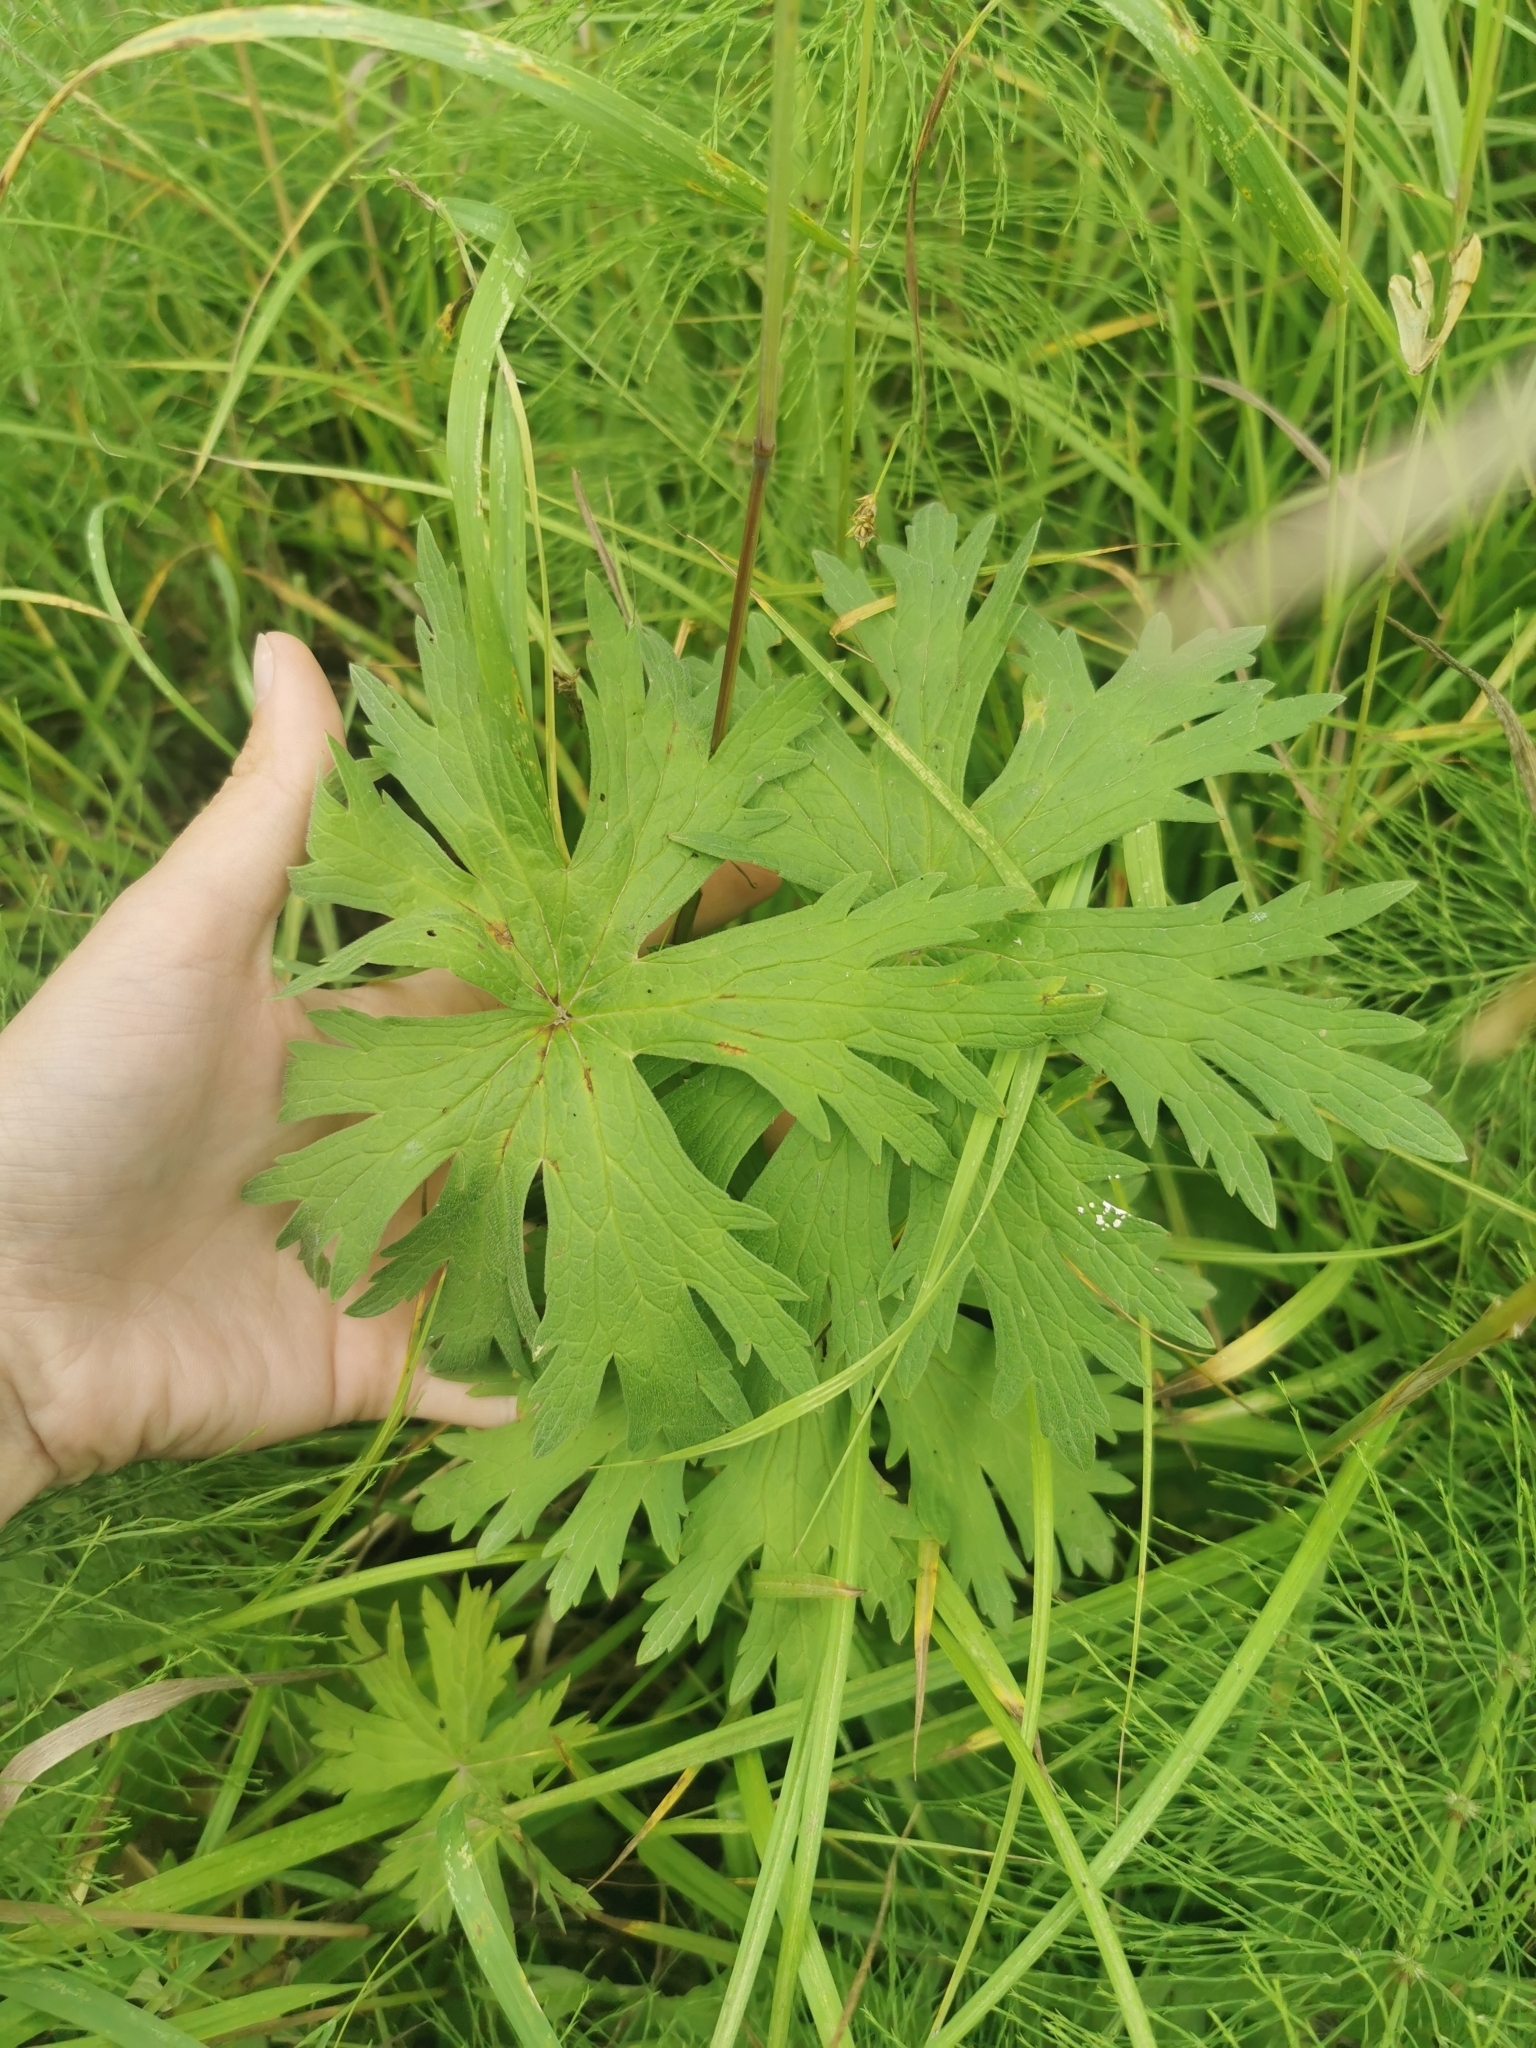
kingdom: Plantae
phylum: Tracheophyta
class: Magnoliopsida
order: Geraniales
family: Geraniaceae
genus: Geranium
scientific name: Geranium erianthum
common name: Northern crane's-bill
